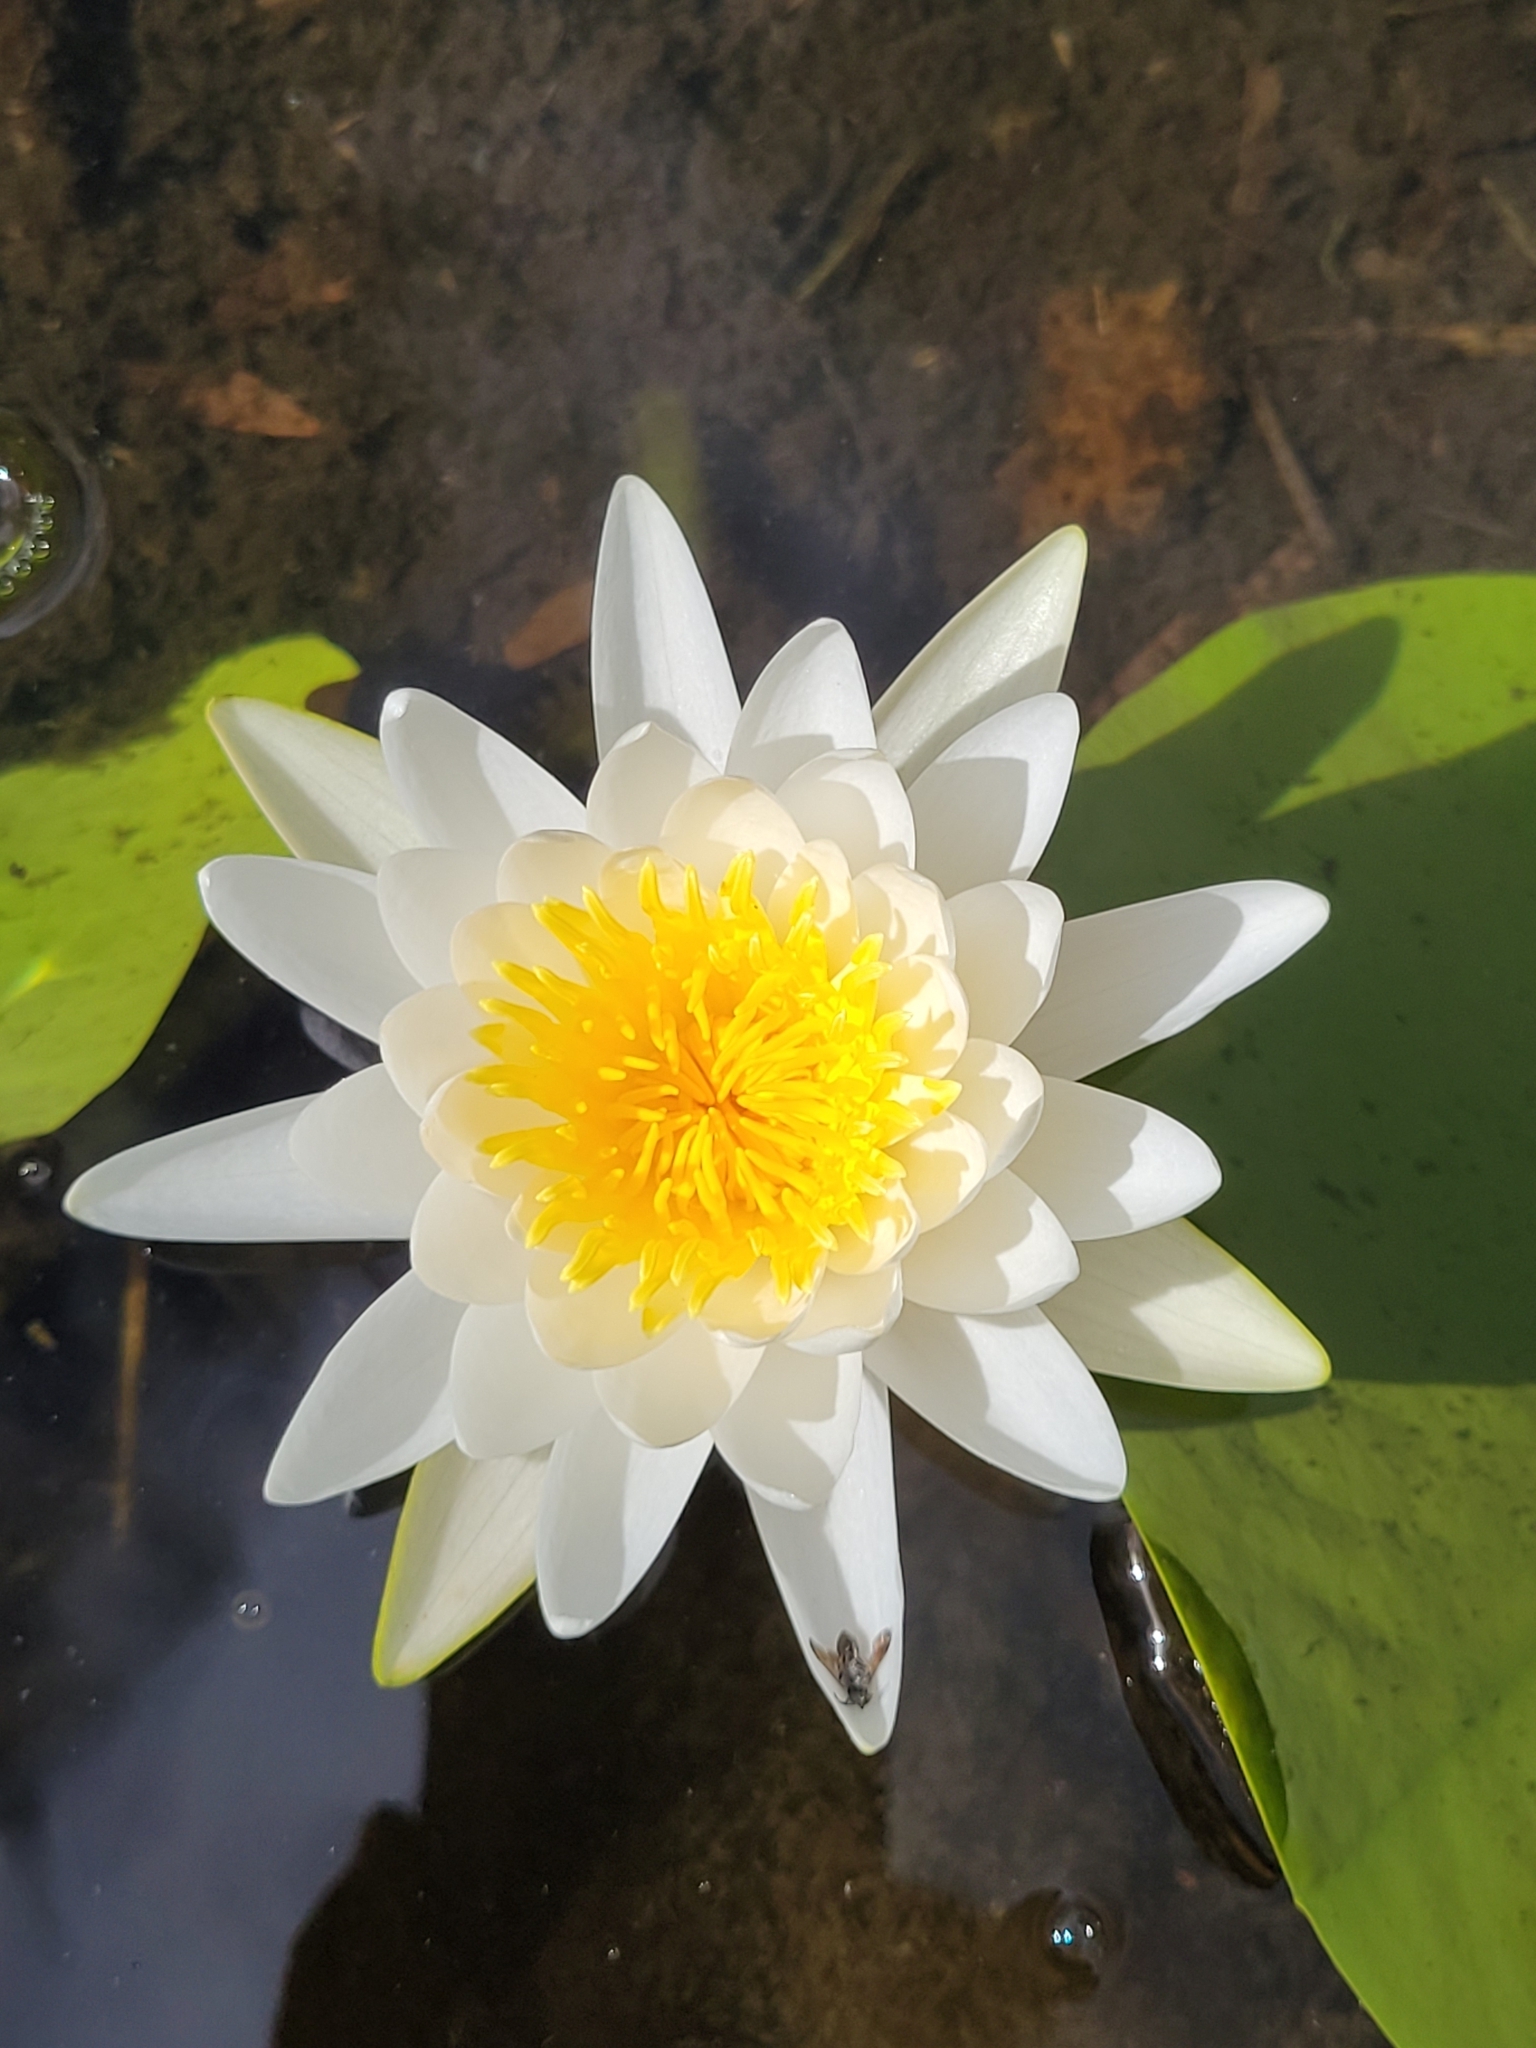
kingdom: Plantae
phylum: Tracheophyta
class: Magnoliopsida
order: Nymphaeales
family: Nymphaeaceae
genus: Nymphaea
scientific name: Nymphaea odorata
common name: Fragrant water-lily
